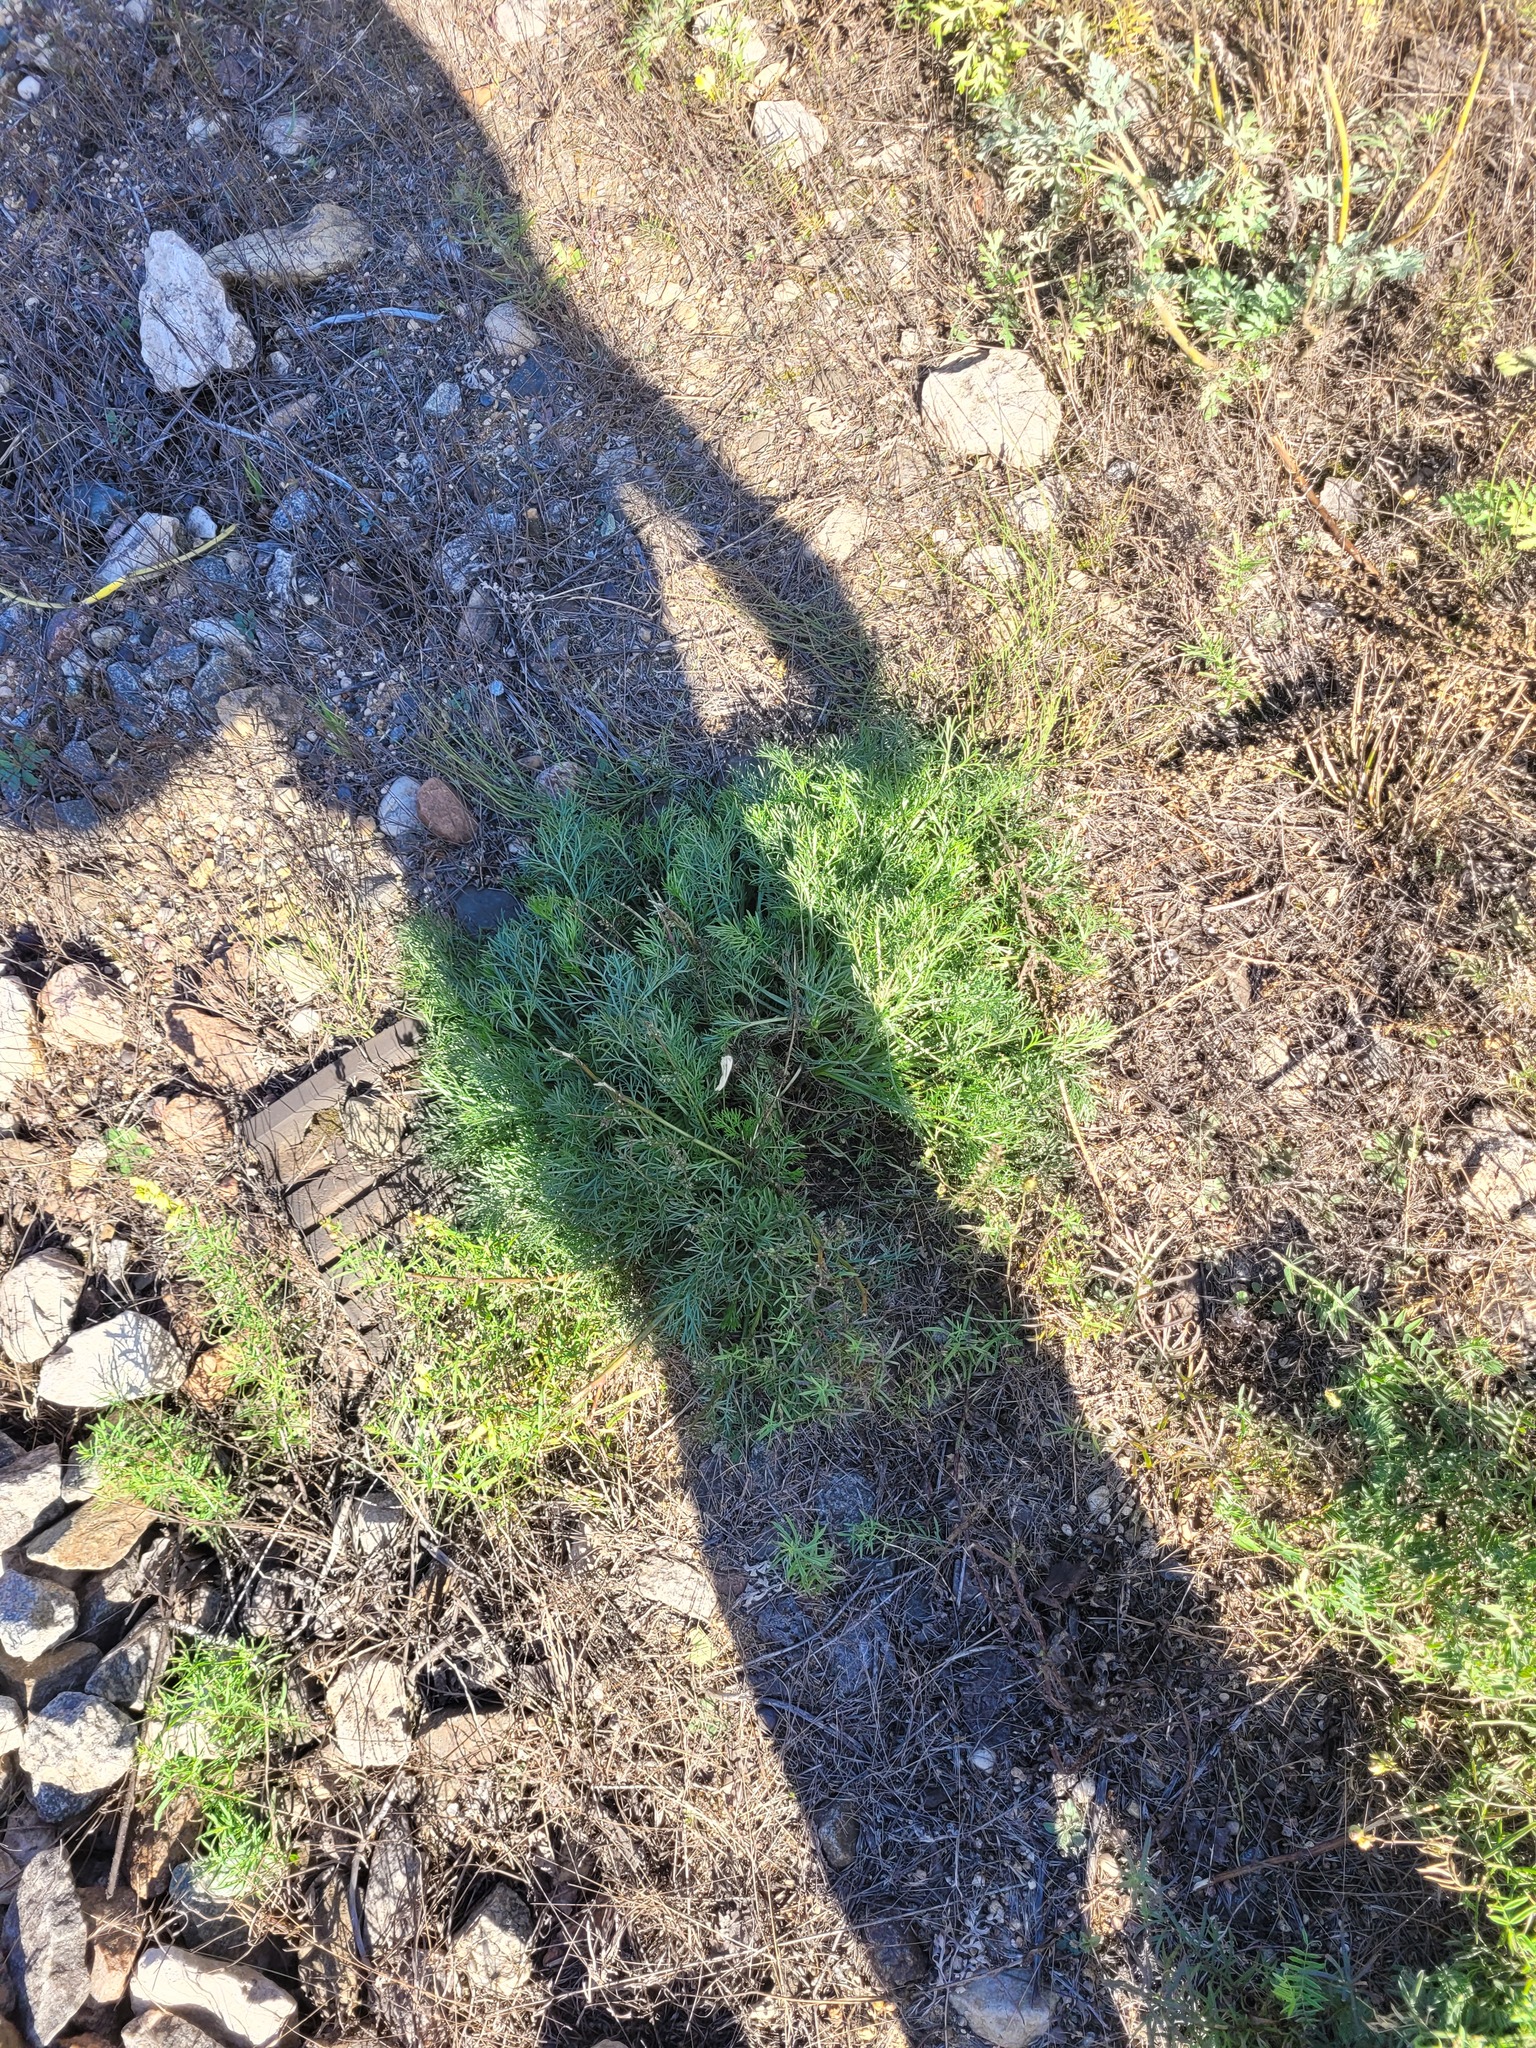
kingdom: Plantae
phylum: Tracheophyta
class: Magnoliopsida
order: Asterales
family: Asteraceae
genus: Artemisia
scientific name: Artemisia campestris
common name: Field wormwood
